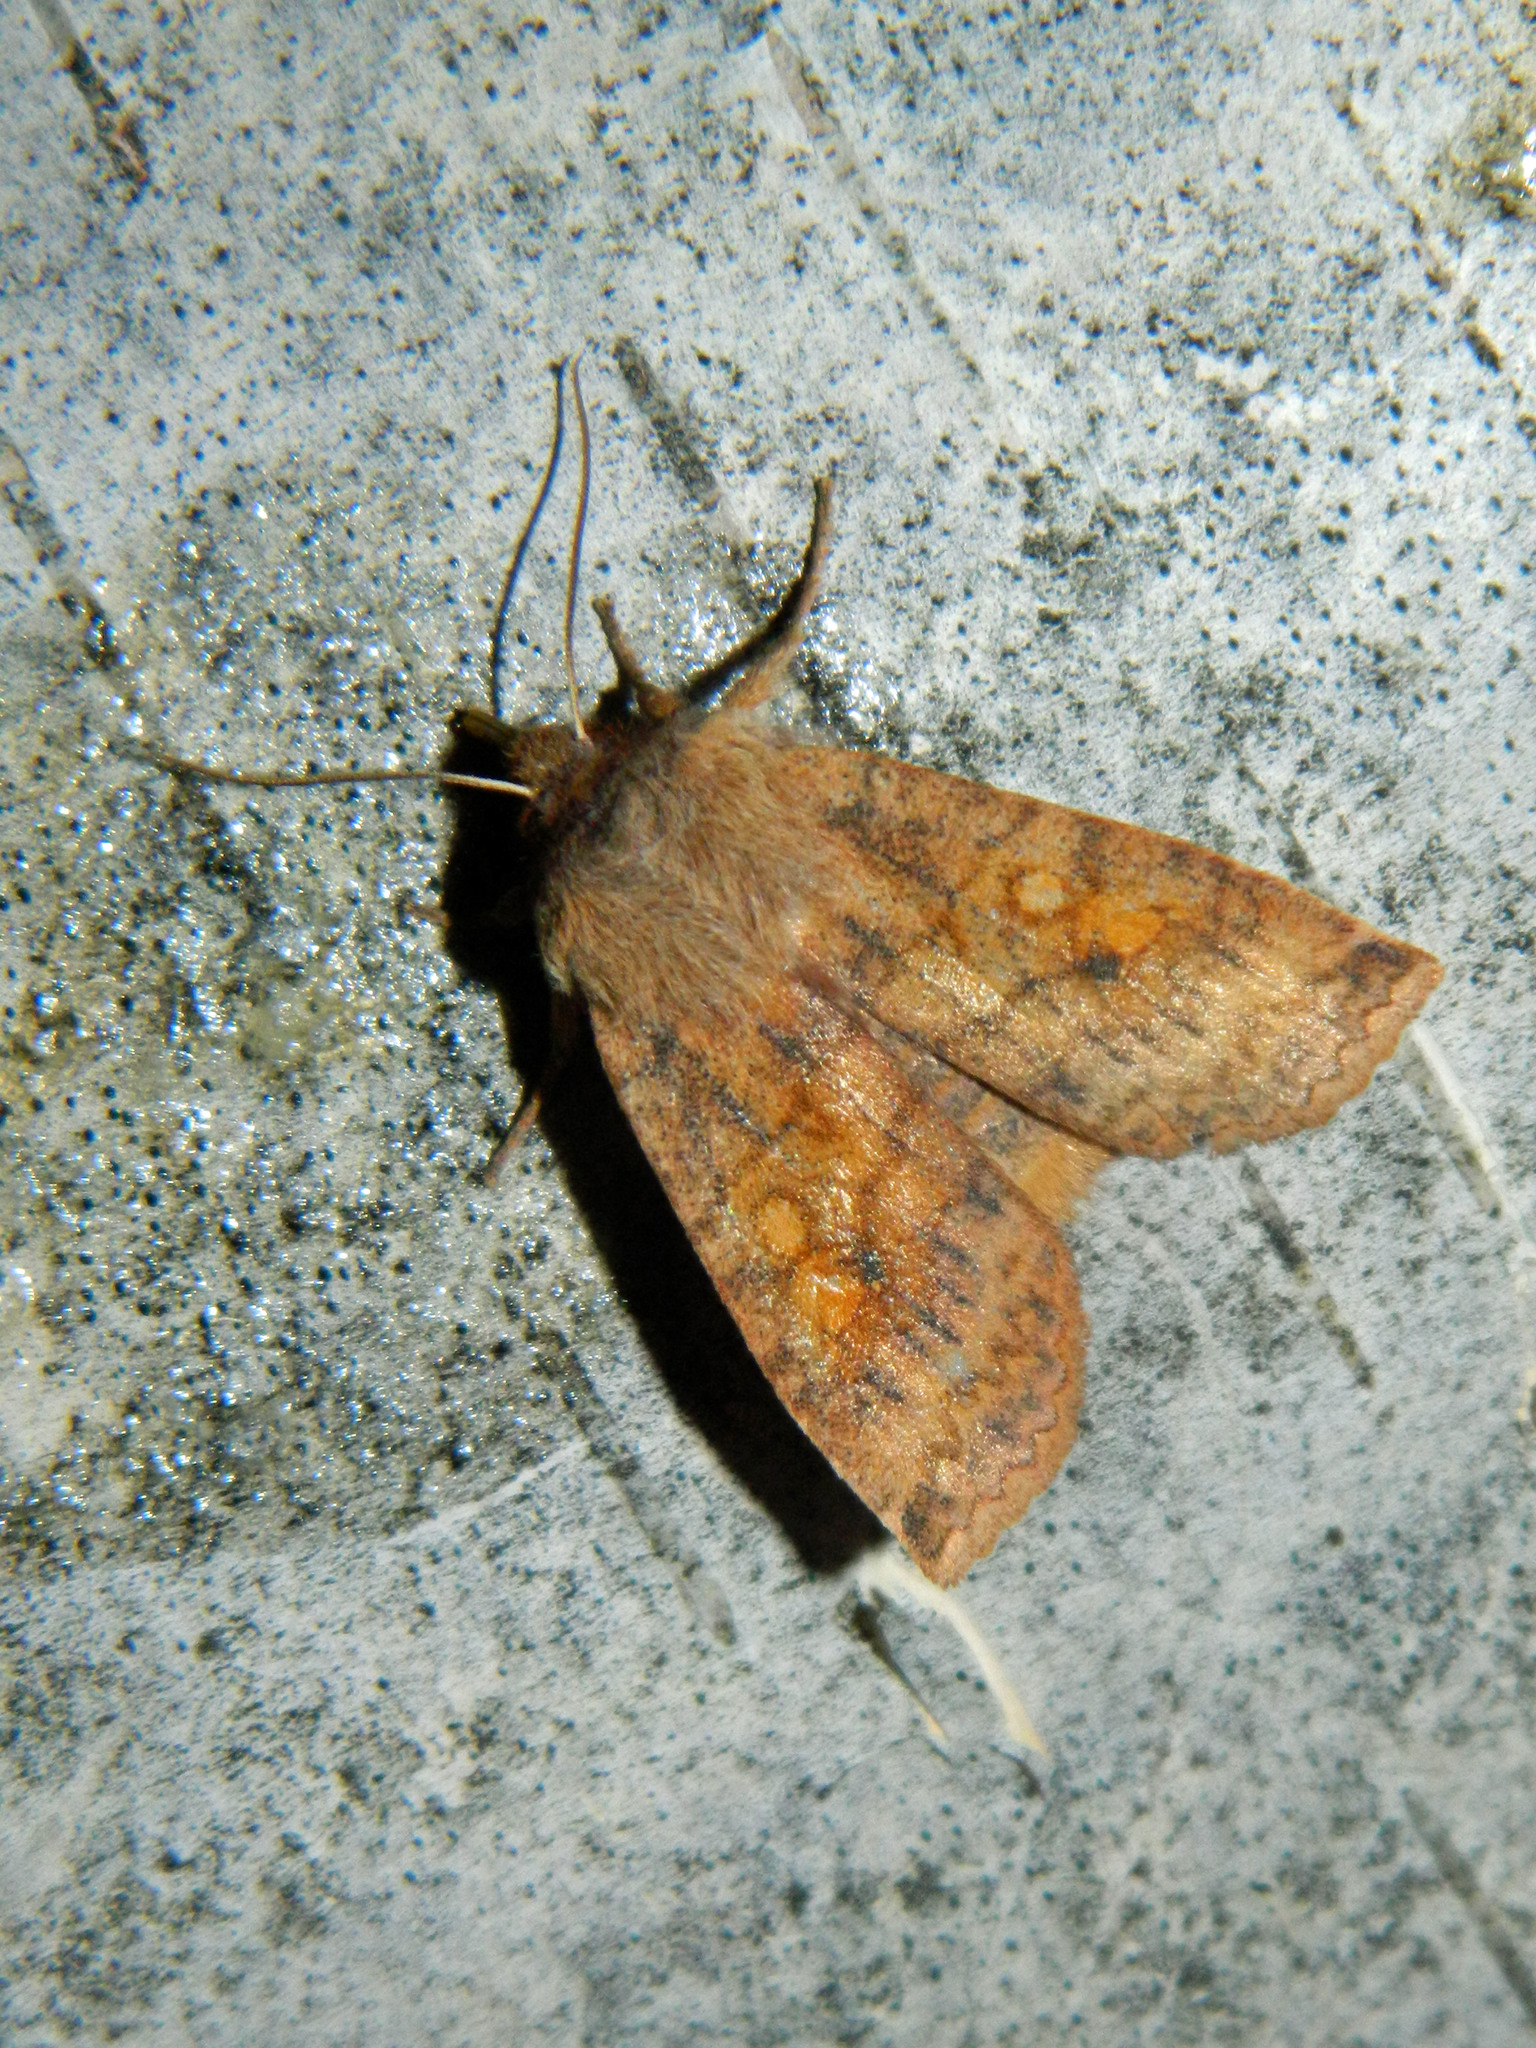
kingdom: Animalia
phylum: Arthropoda
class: Insecta
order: Lepidoptera
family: Noctuidae
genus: Eupsilia
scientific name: Eupsilia tristigmata
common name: Three-spotted sallow
